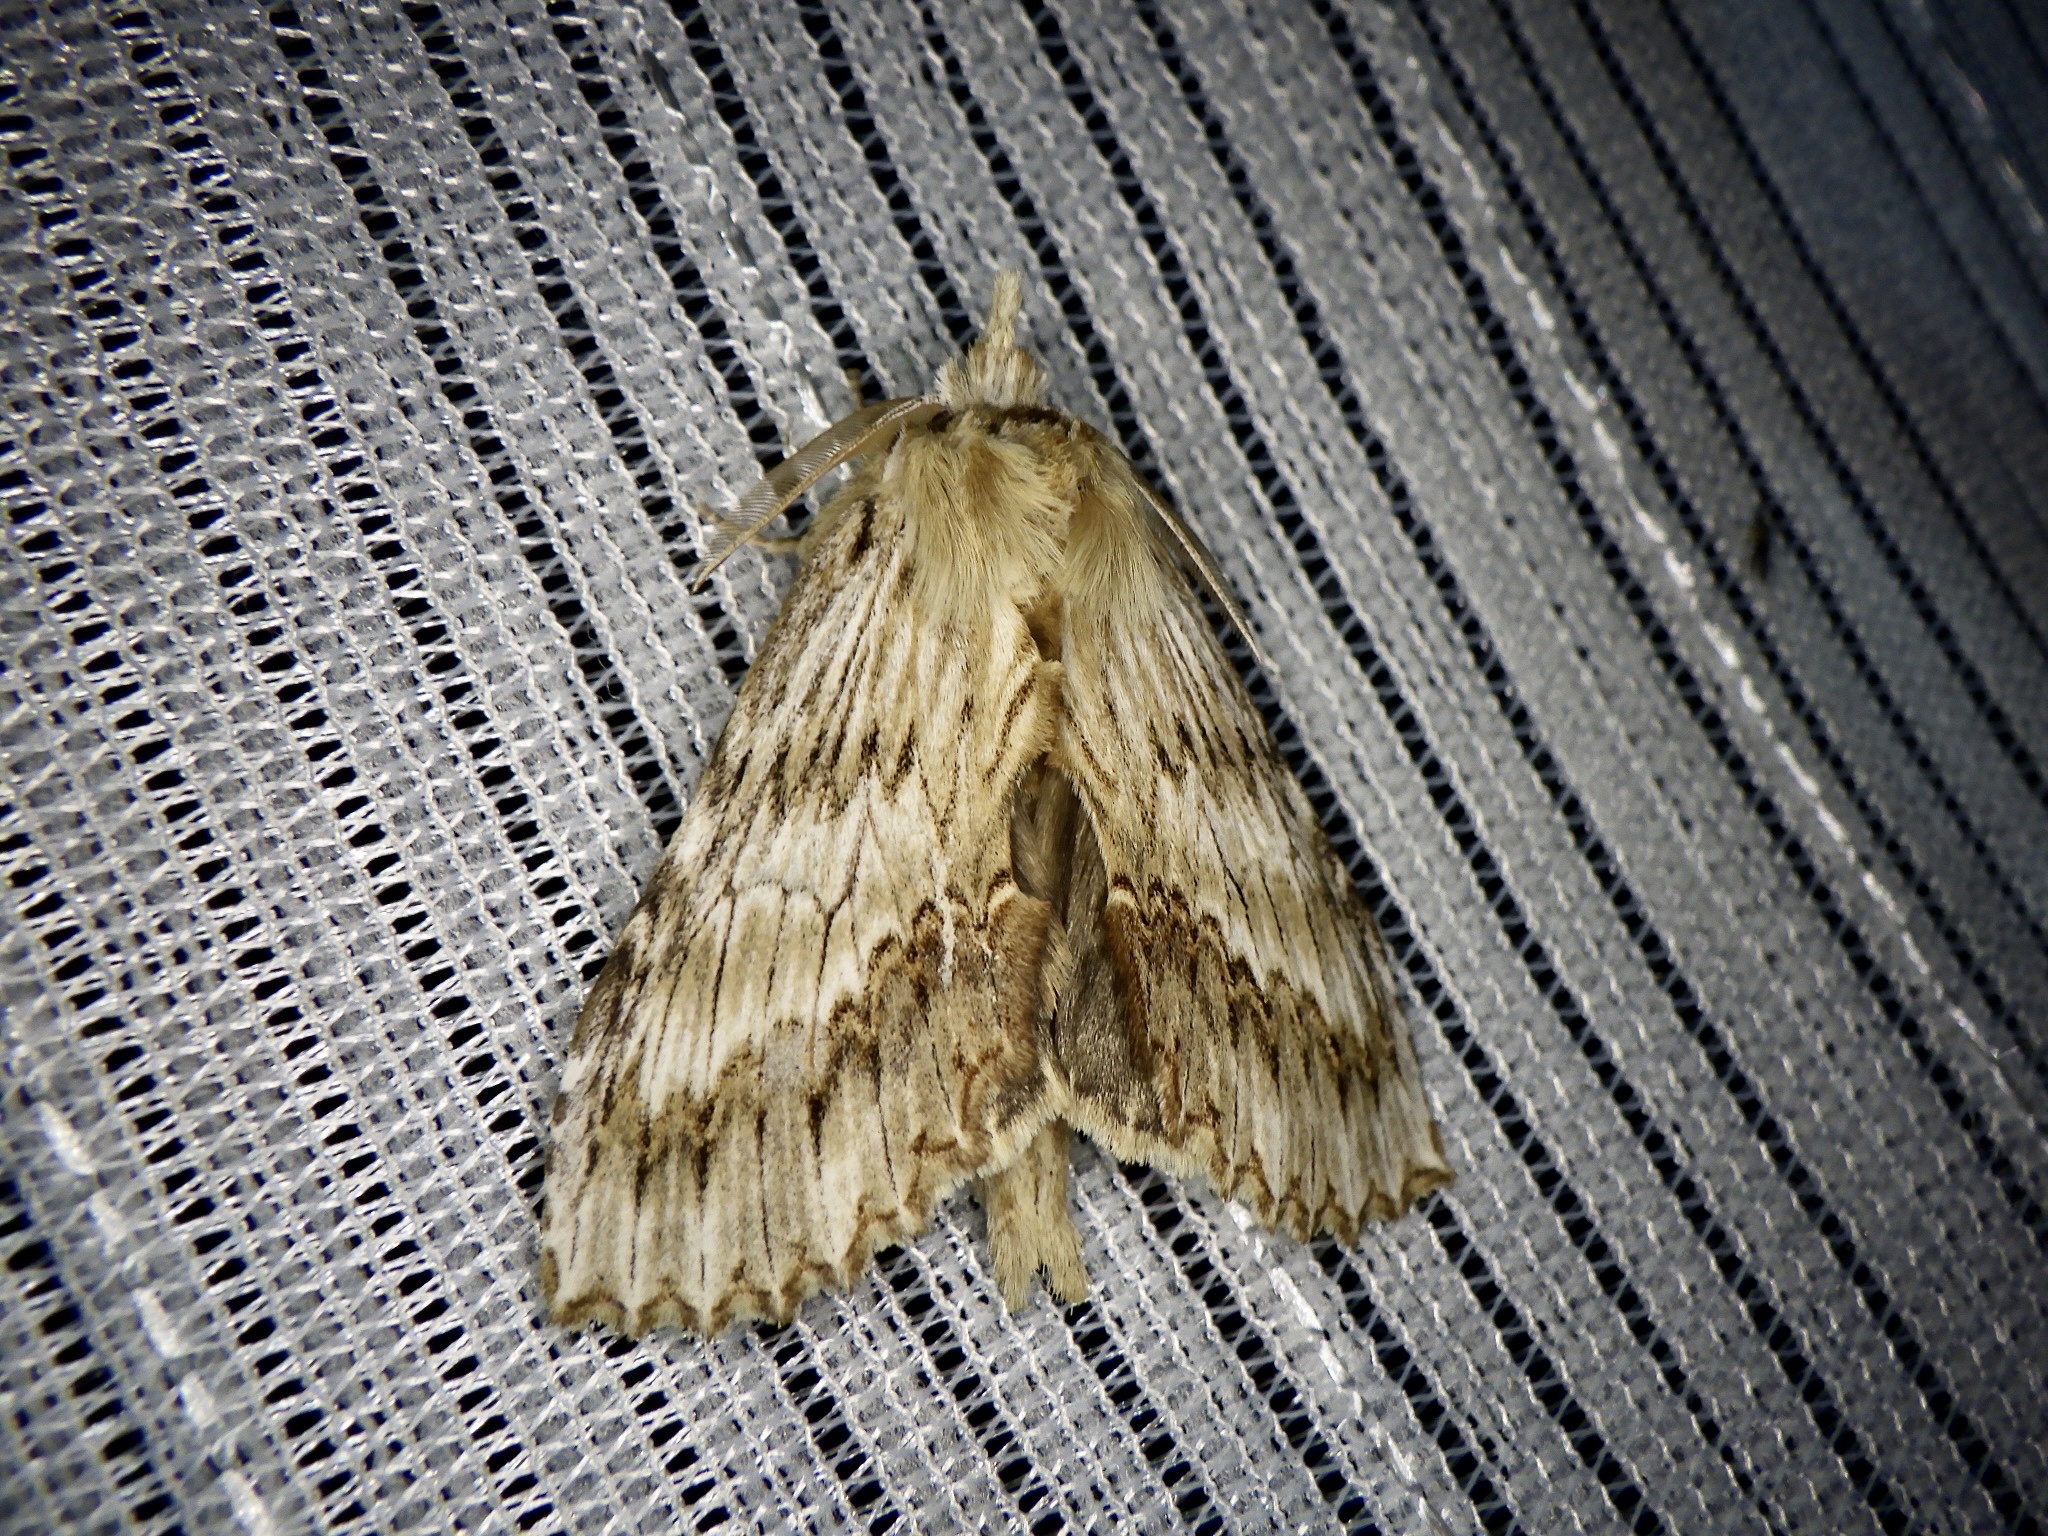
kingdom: Animalia
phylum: Arthropoda
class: Insecta
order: Lepidoptera
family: Notodontidae
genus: Pterostoma
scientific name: Pterostoma gigantina
